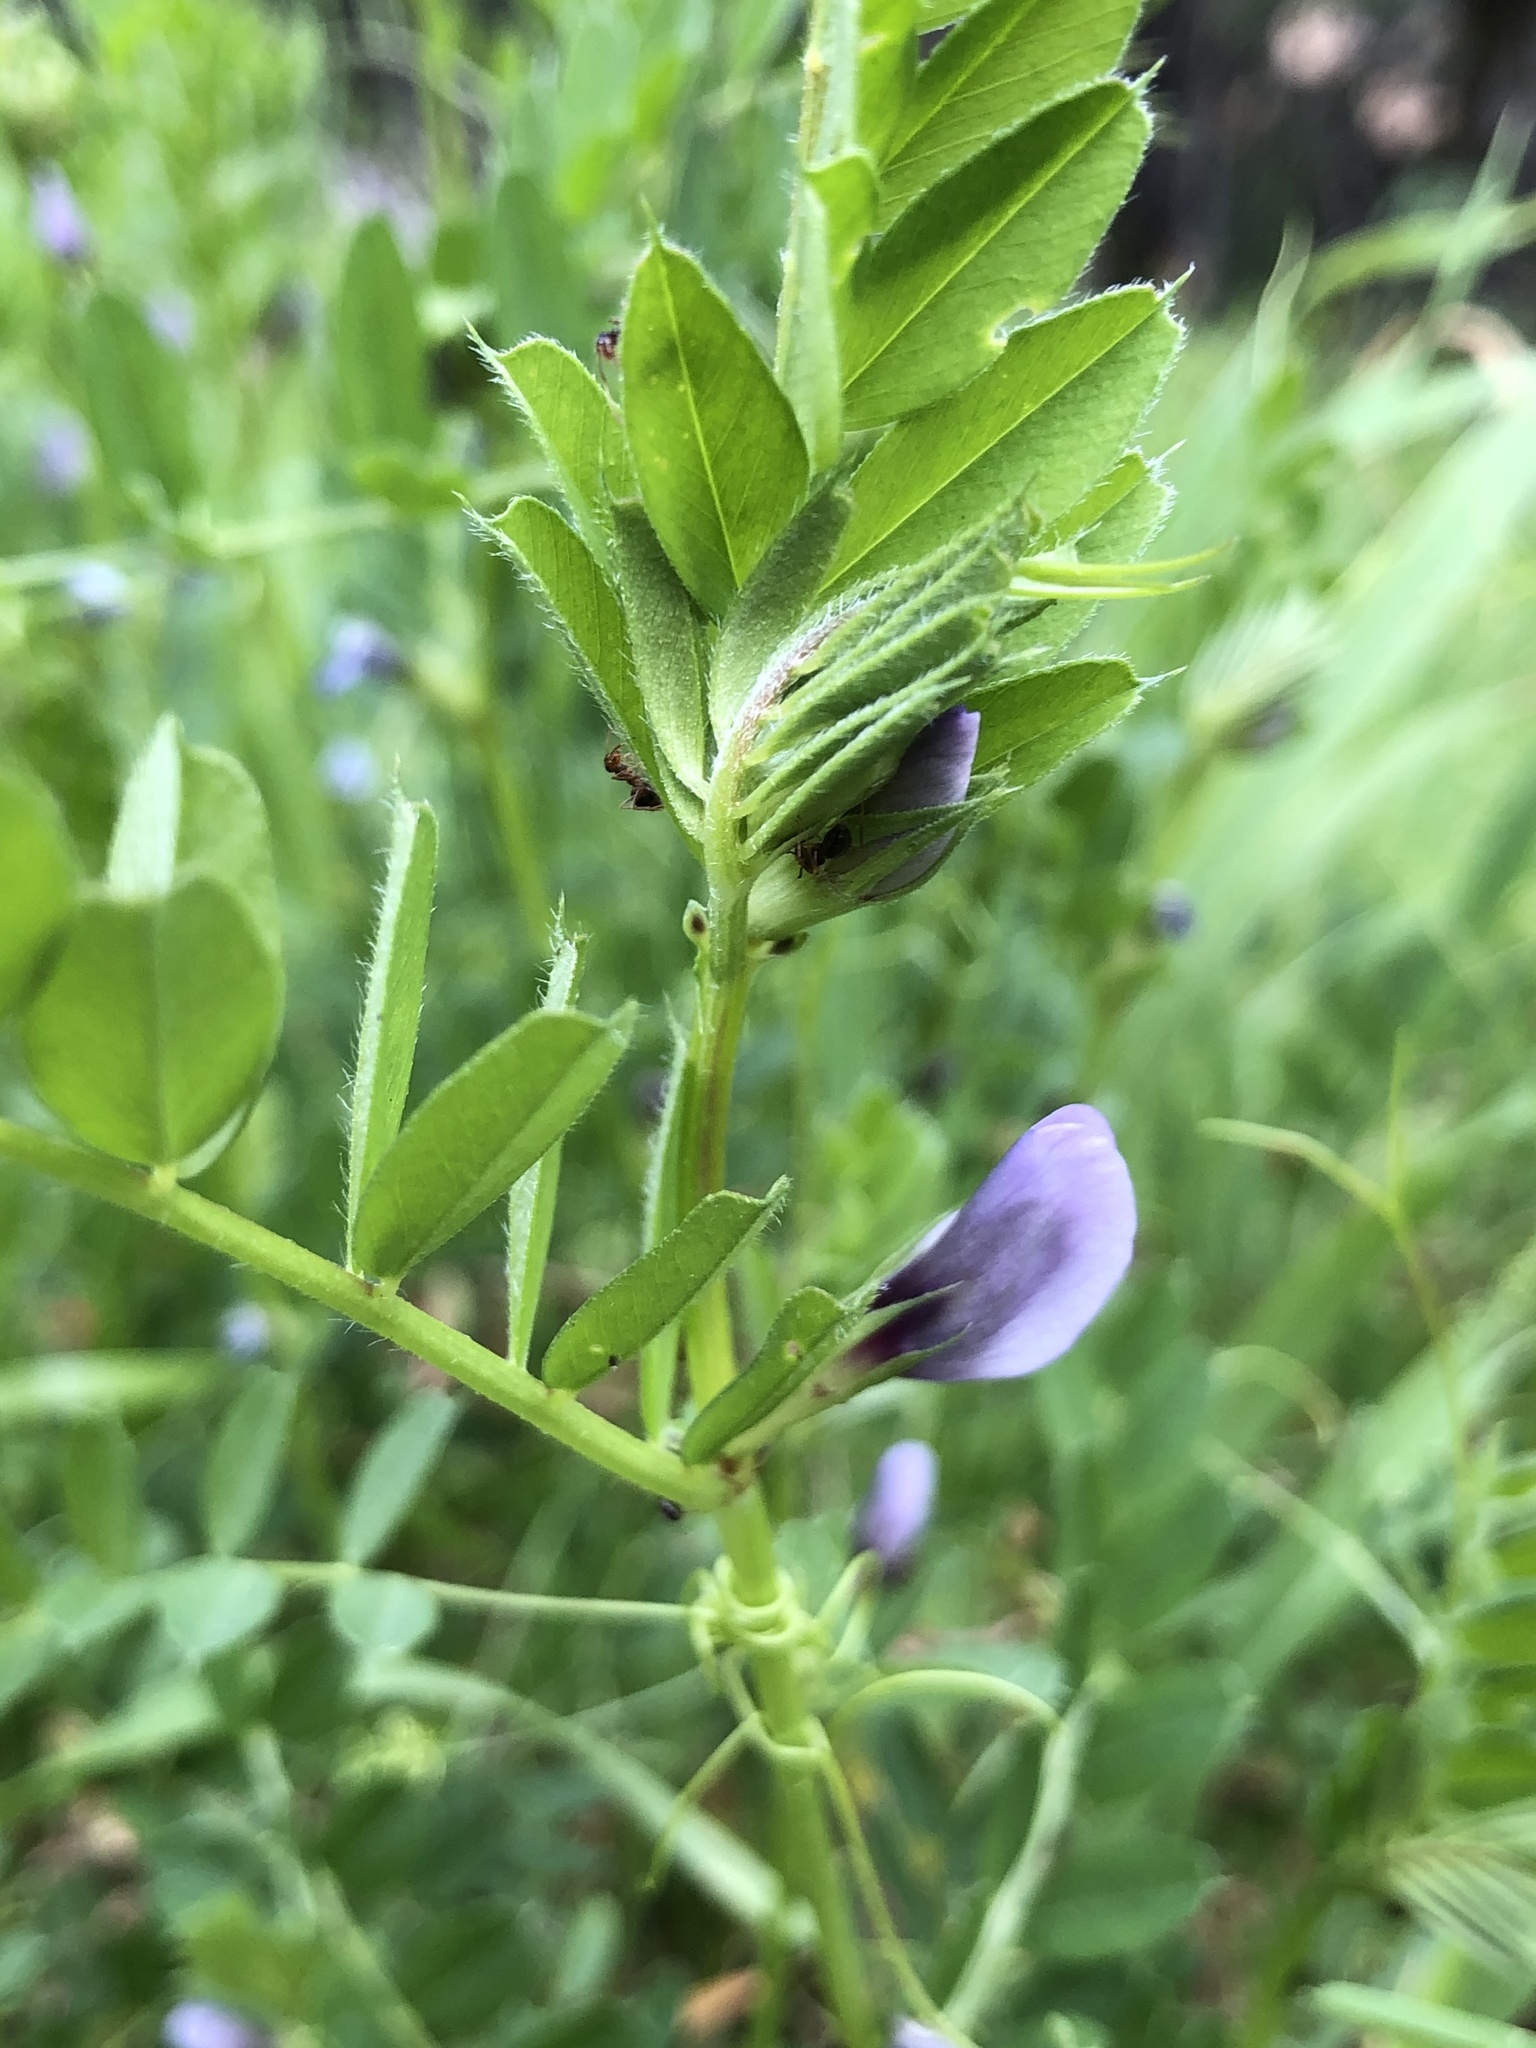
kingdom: Plantae
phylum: Tracheophyta
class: Magnoliopsida
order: Fabales
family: Fabaceae
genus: Vicia
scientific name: Vicia sativa
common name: Garden vetch
